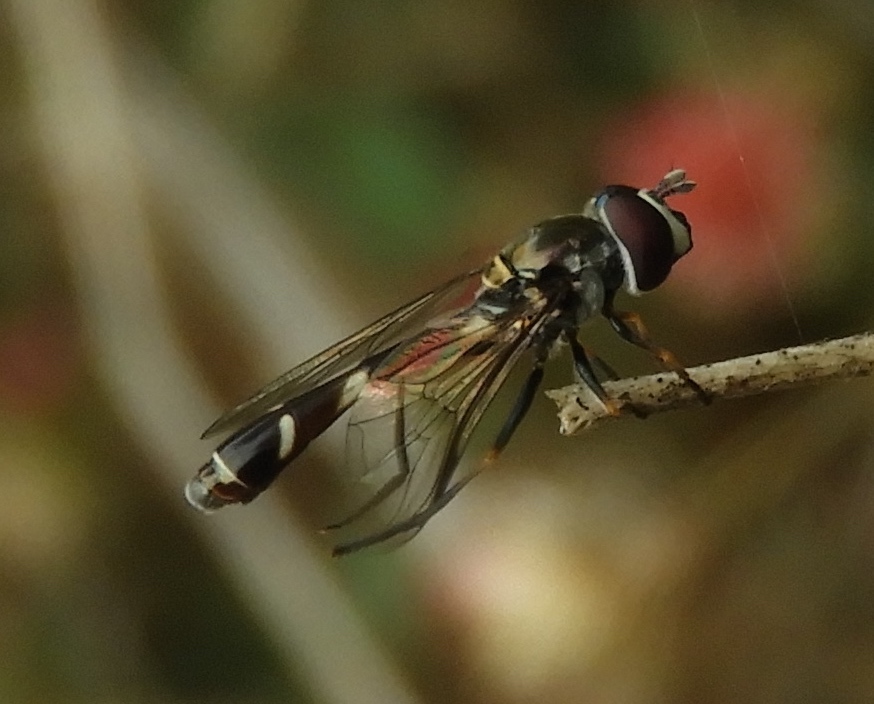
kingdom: Animalia
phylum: Arthropoda
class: Insecta
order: Diptera
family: Syrphidae
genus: Dioprosopa
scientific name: Dioprosopa clavatus
